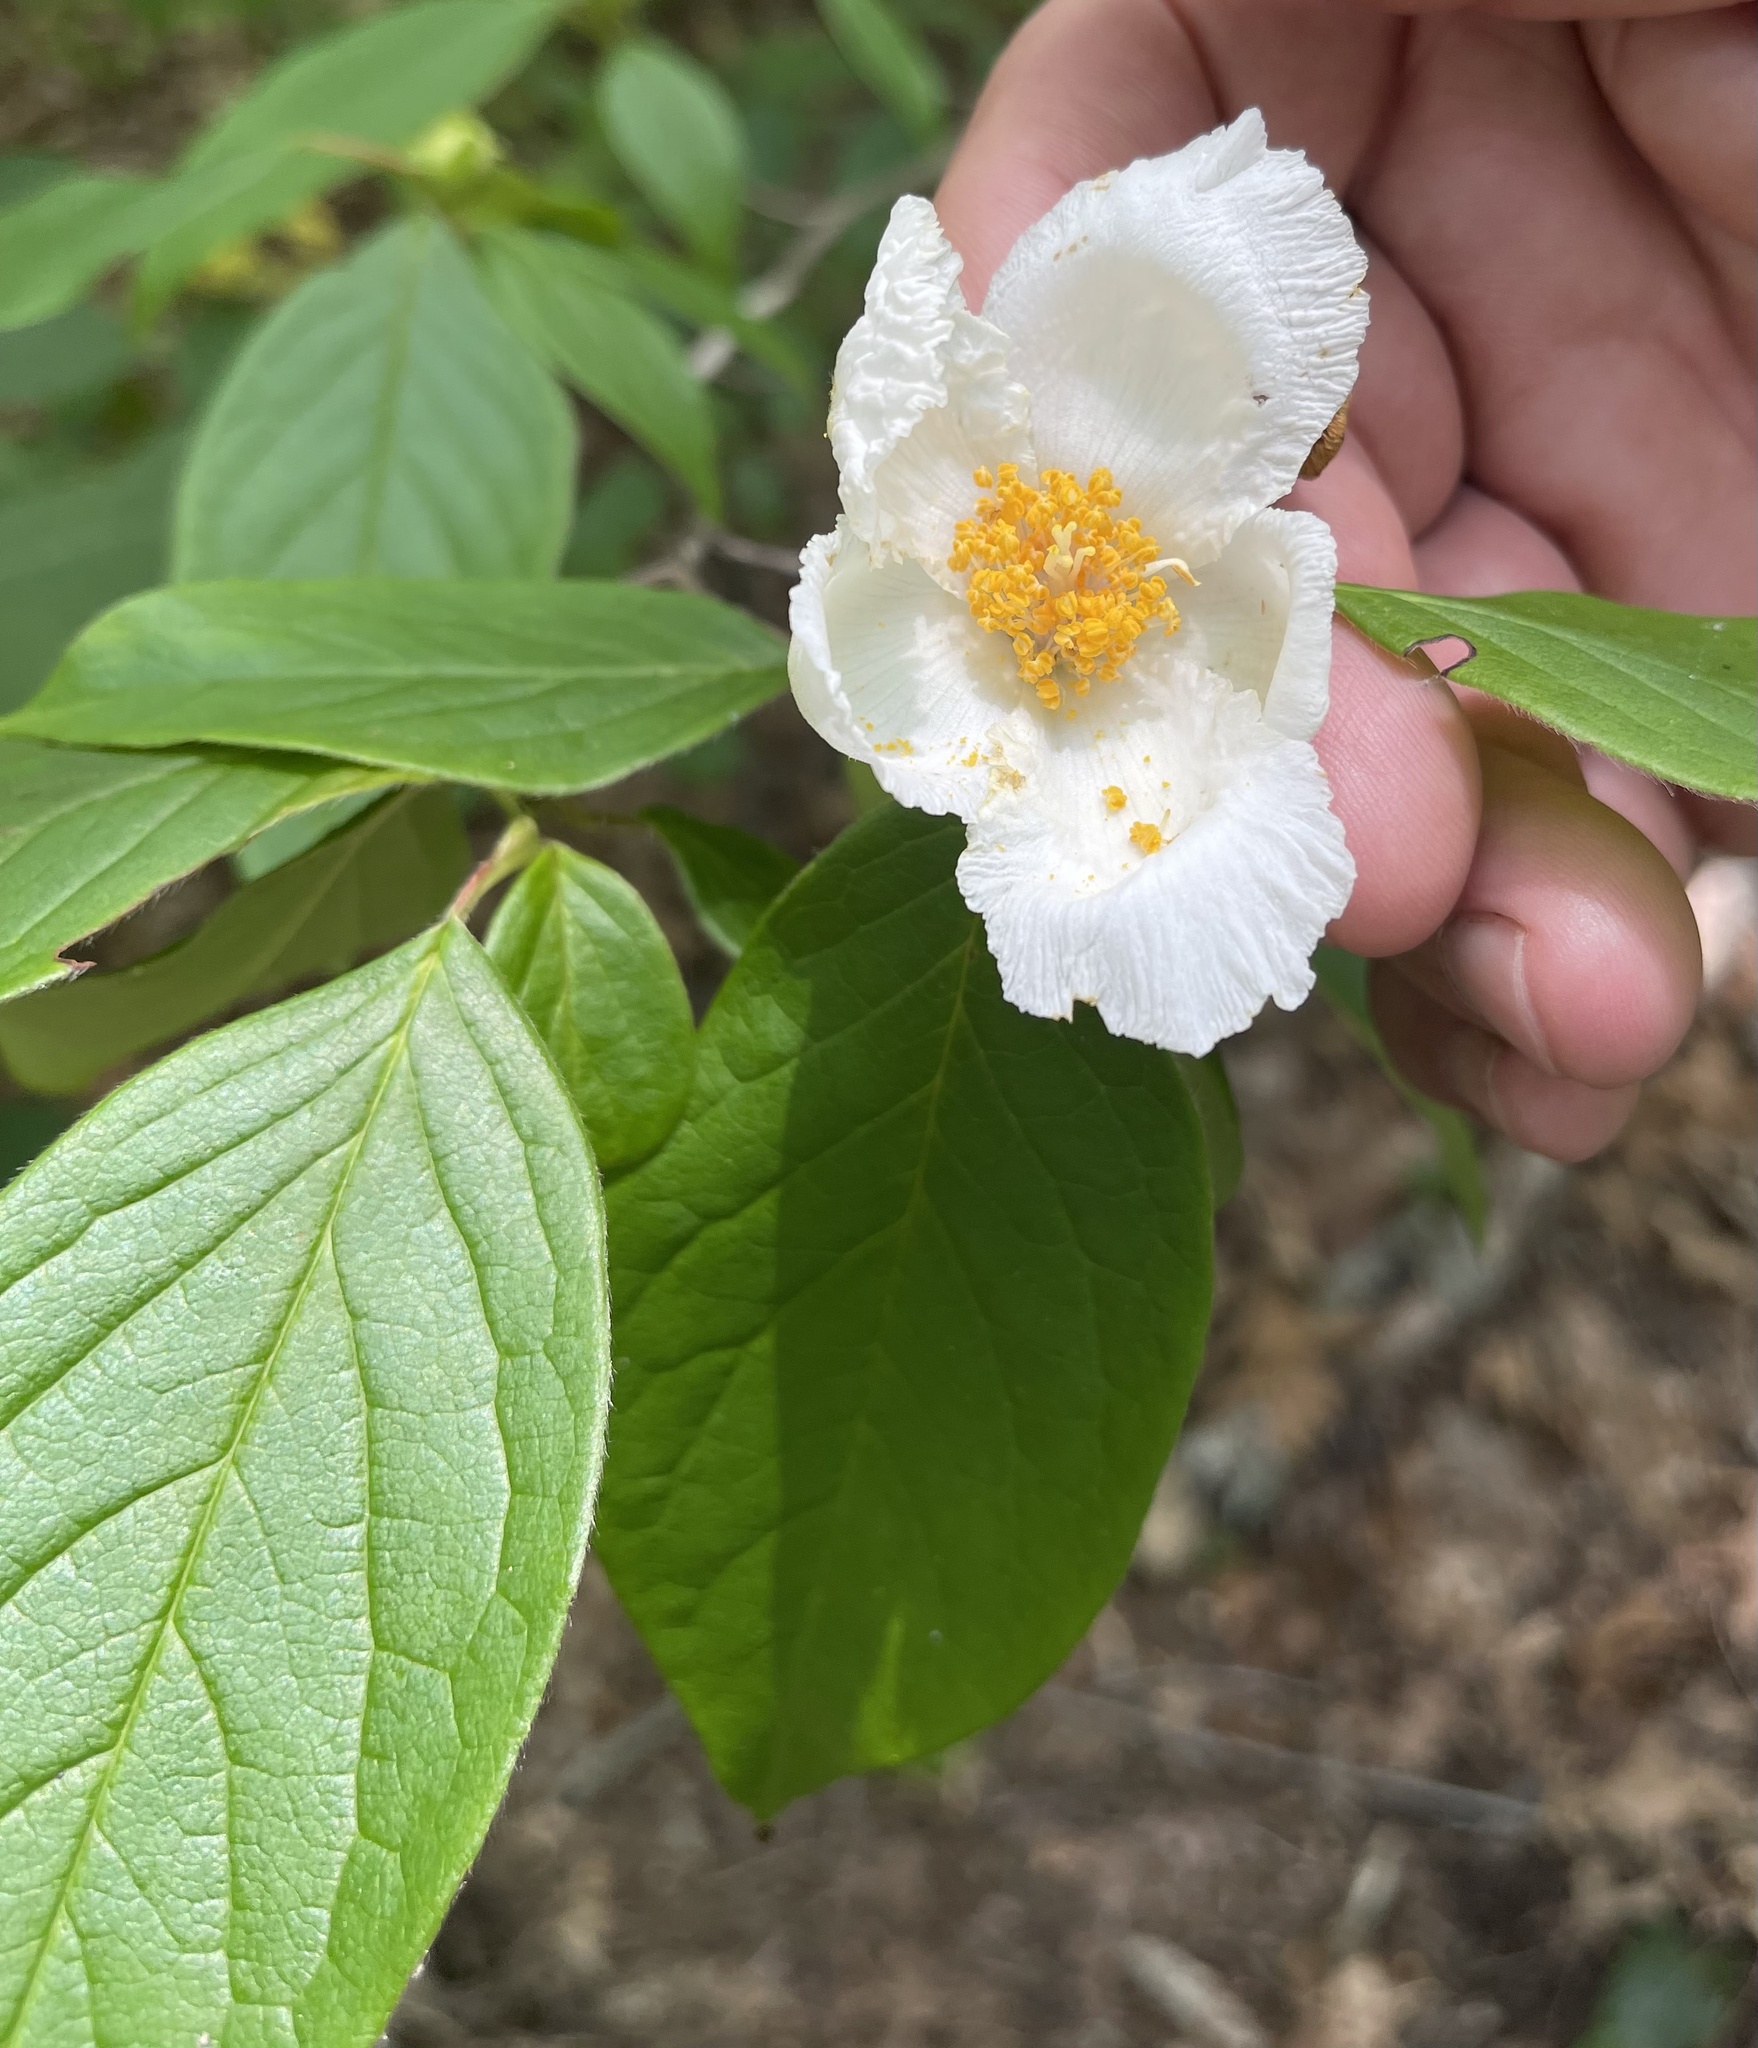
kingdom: Plantae
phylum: Tracheophyta
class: Magnoliopsida
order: Ericales
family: Theaceae
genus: Stewartia
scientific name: Stewartia ovata
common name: Mountain camellia
